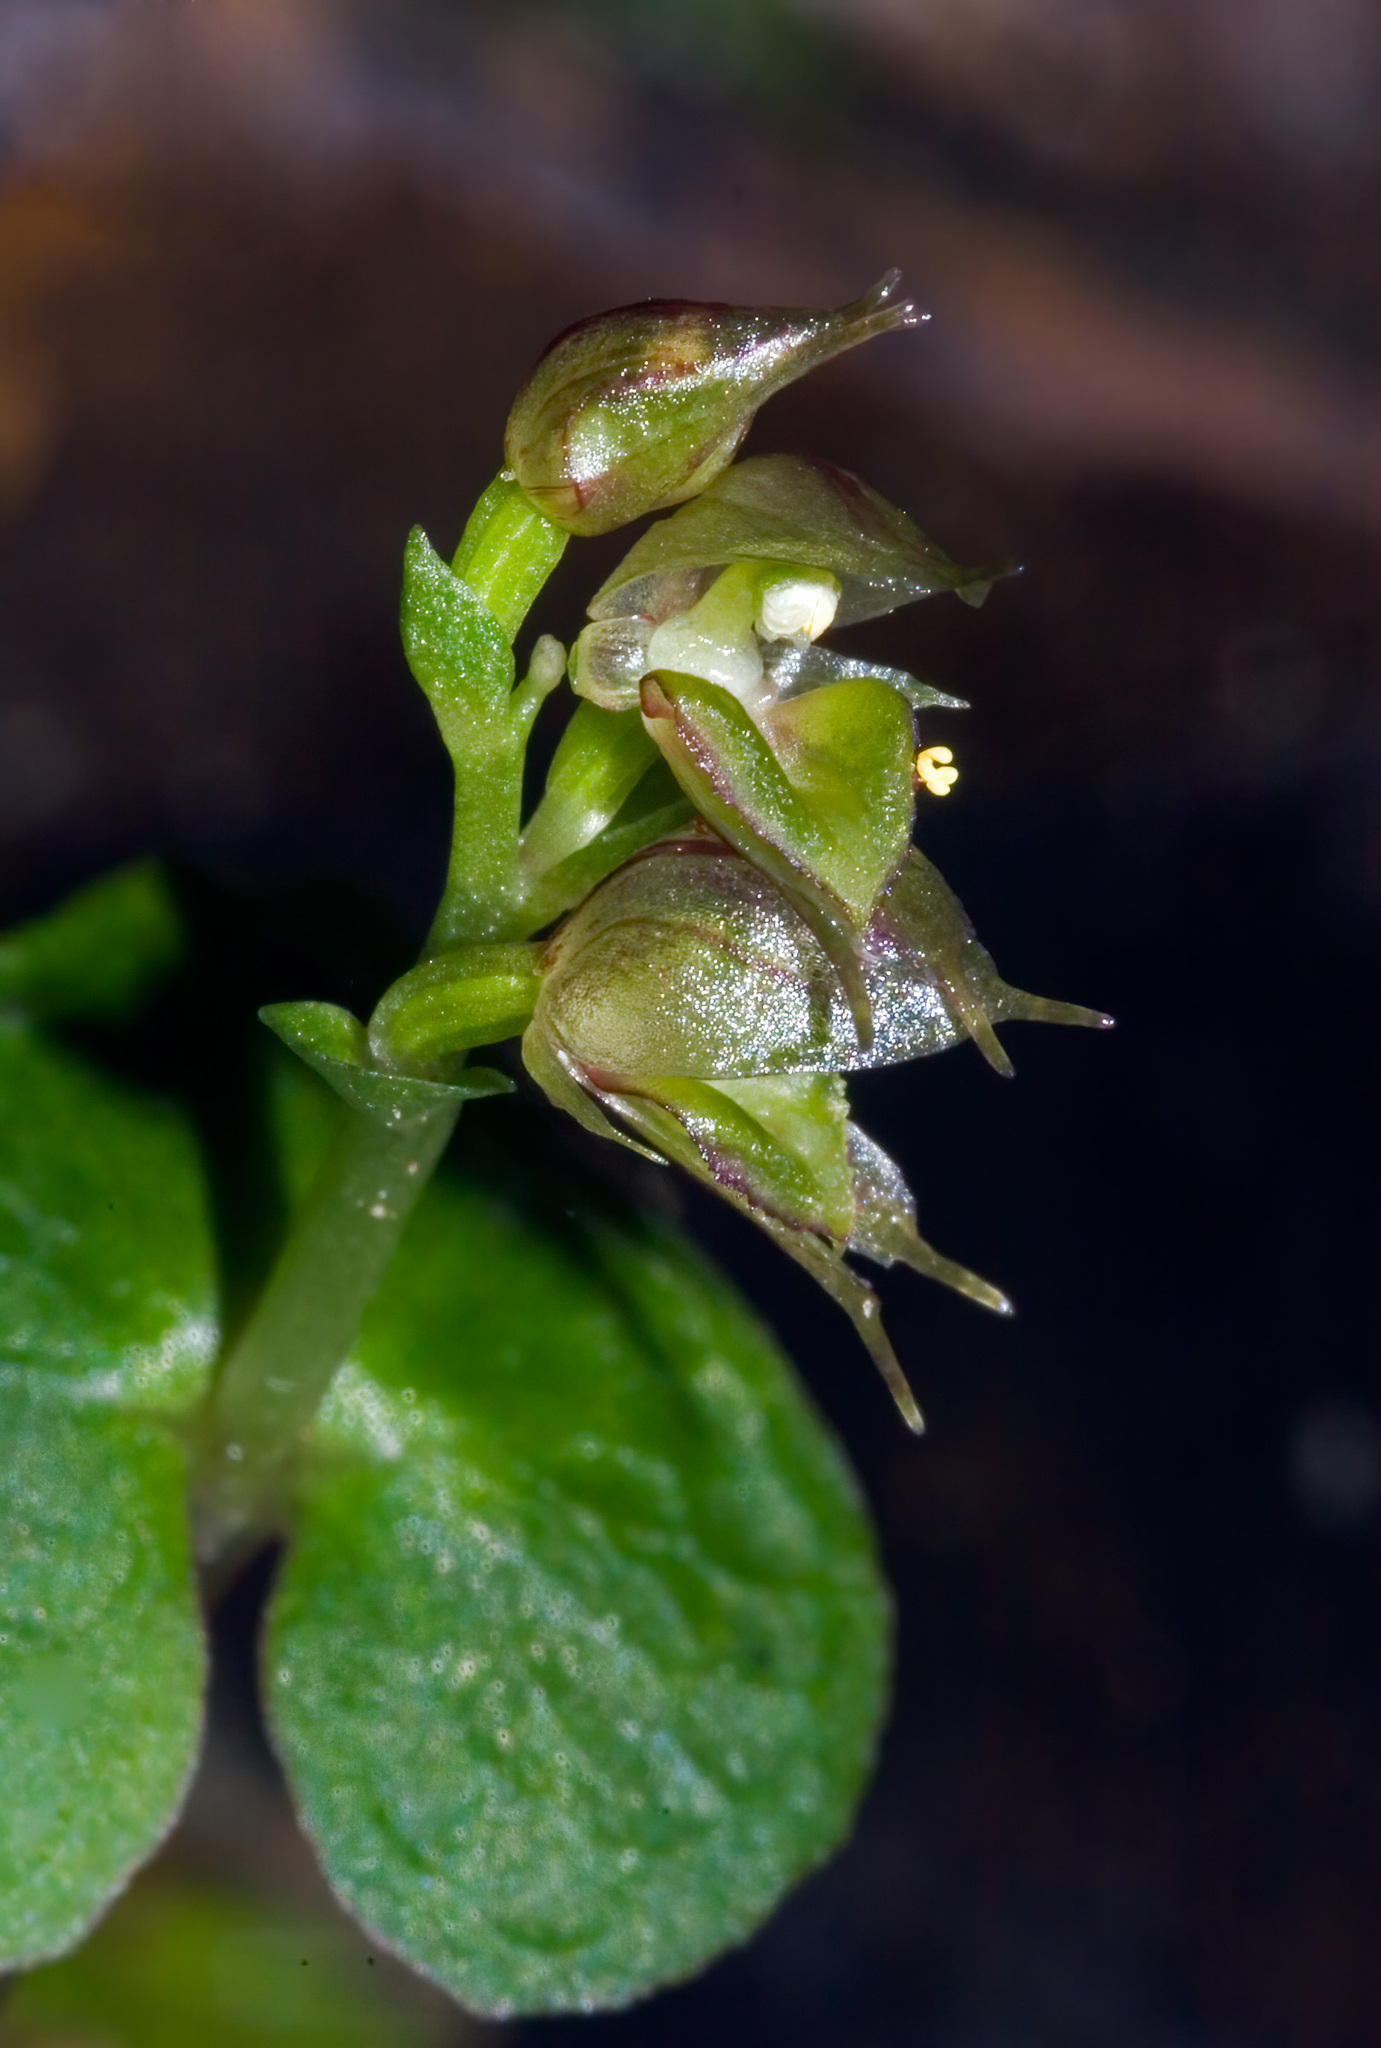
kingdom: Plantae
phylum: Tracheophyta
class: Liliopsida
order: Asparagales
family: Orchidaceae
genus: Acianthus
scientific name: Acianthus sinclairii
